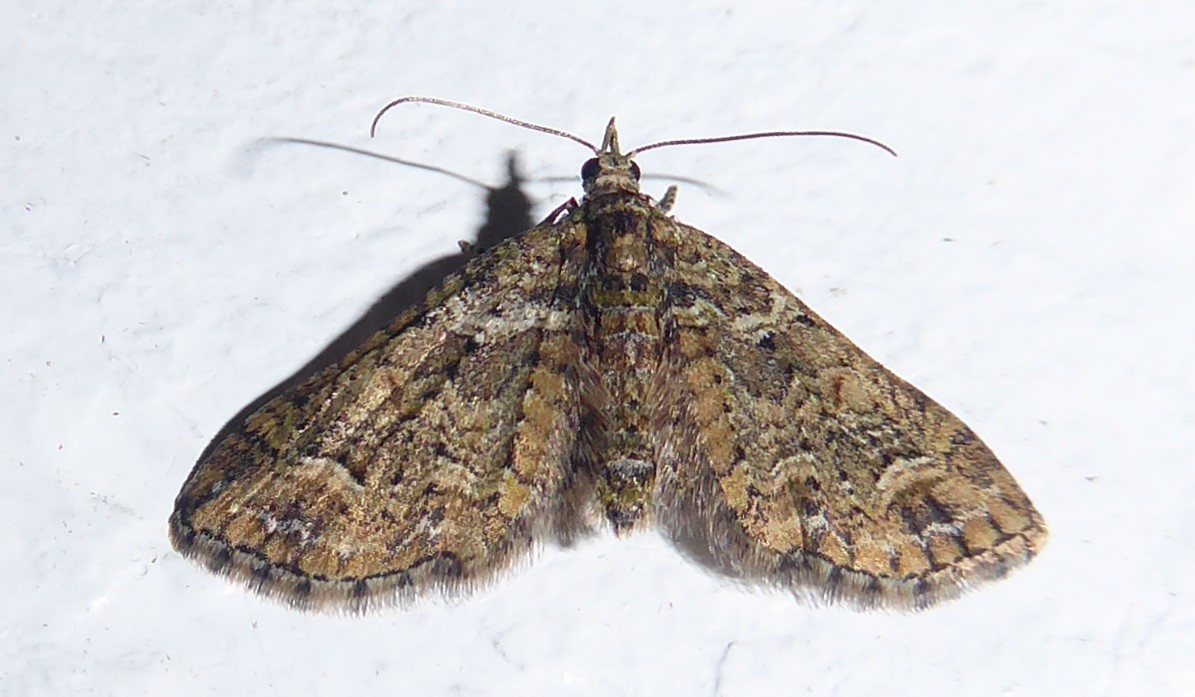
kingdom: Animalia
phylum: Arthropoda
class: Insecta
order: Lepidoptera
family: Geometridae
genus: Idaea
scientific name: Idaea mutanda
